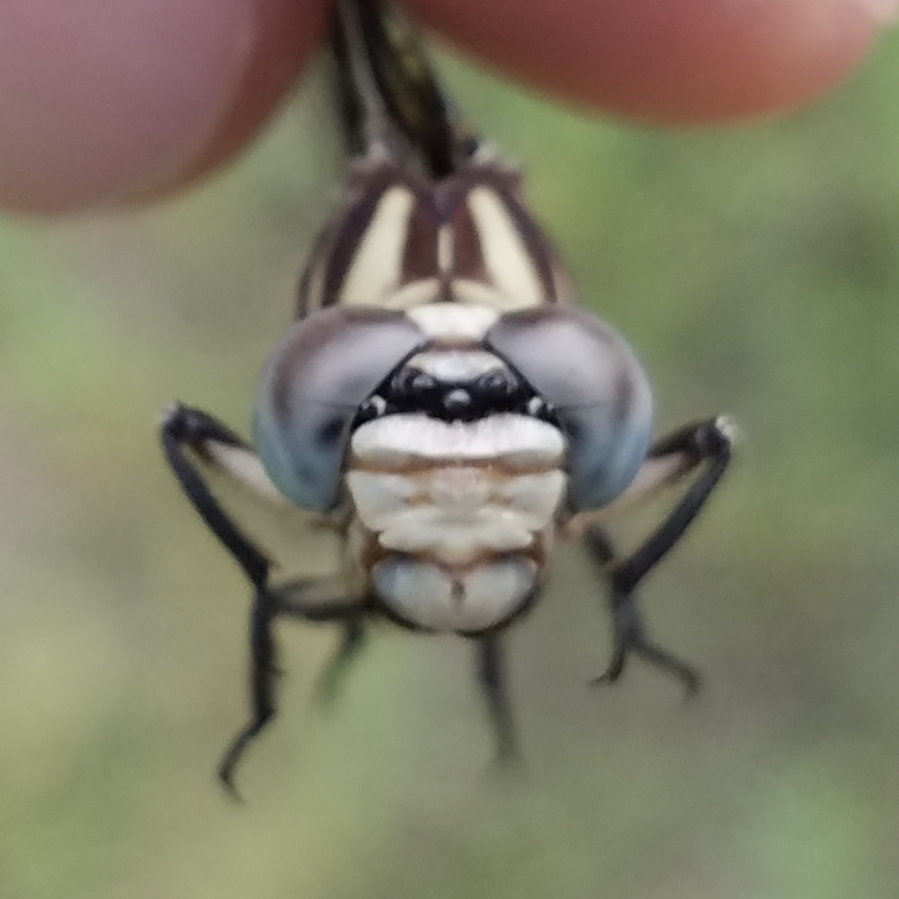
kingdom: Animalia
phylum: Arthropoda
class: Insecta
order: Odonata
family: Gomphidae
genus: Phyllogomphoides
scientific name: Phyllogomphoides stigmatus
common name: Four-striped leaftail
